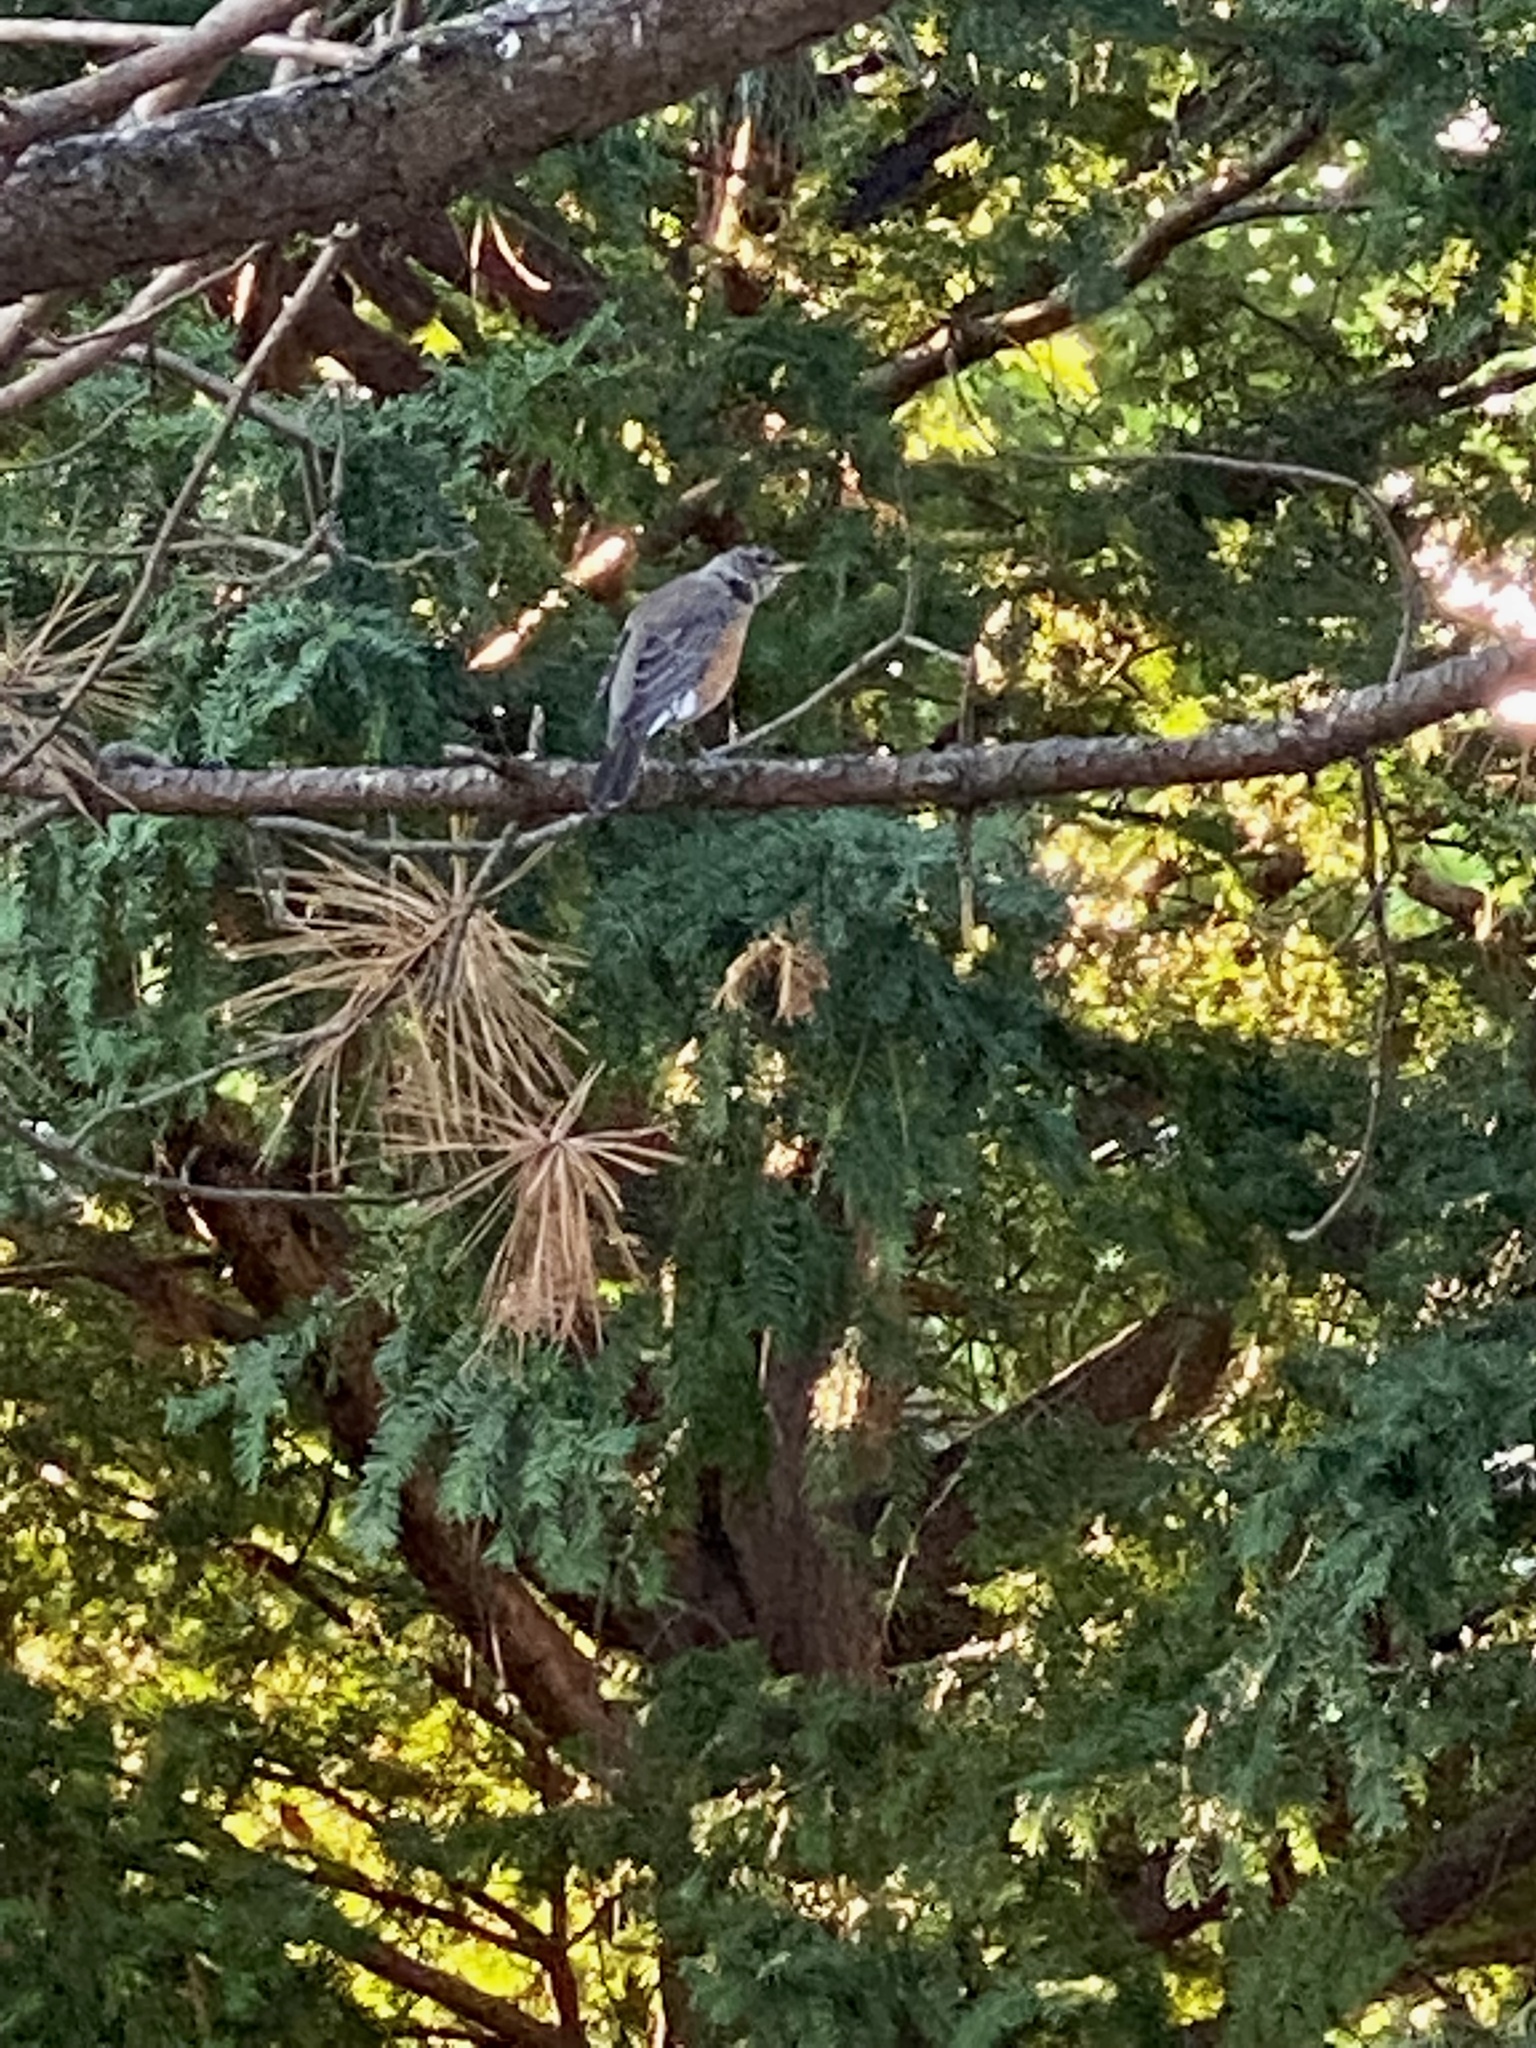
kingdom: Animalia
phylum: Chordata
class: Aves
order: Passeriformes
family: Turdidae
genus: Turdus
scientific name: Turdus migratorius
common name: American robin
